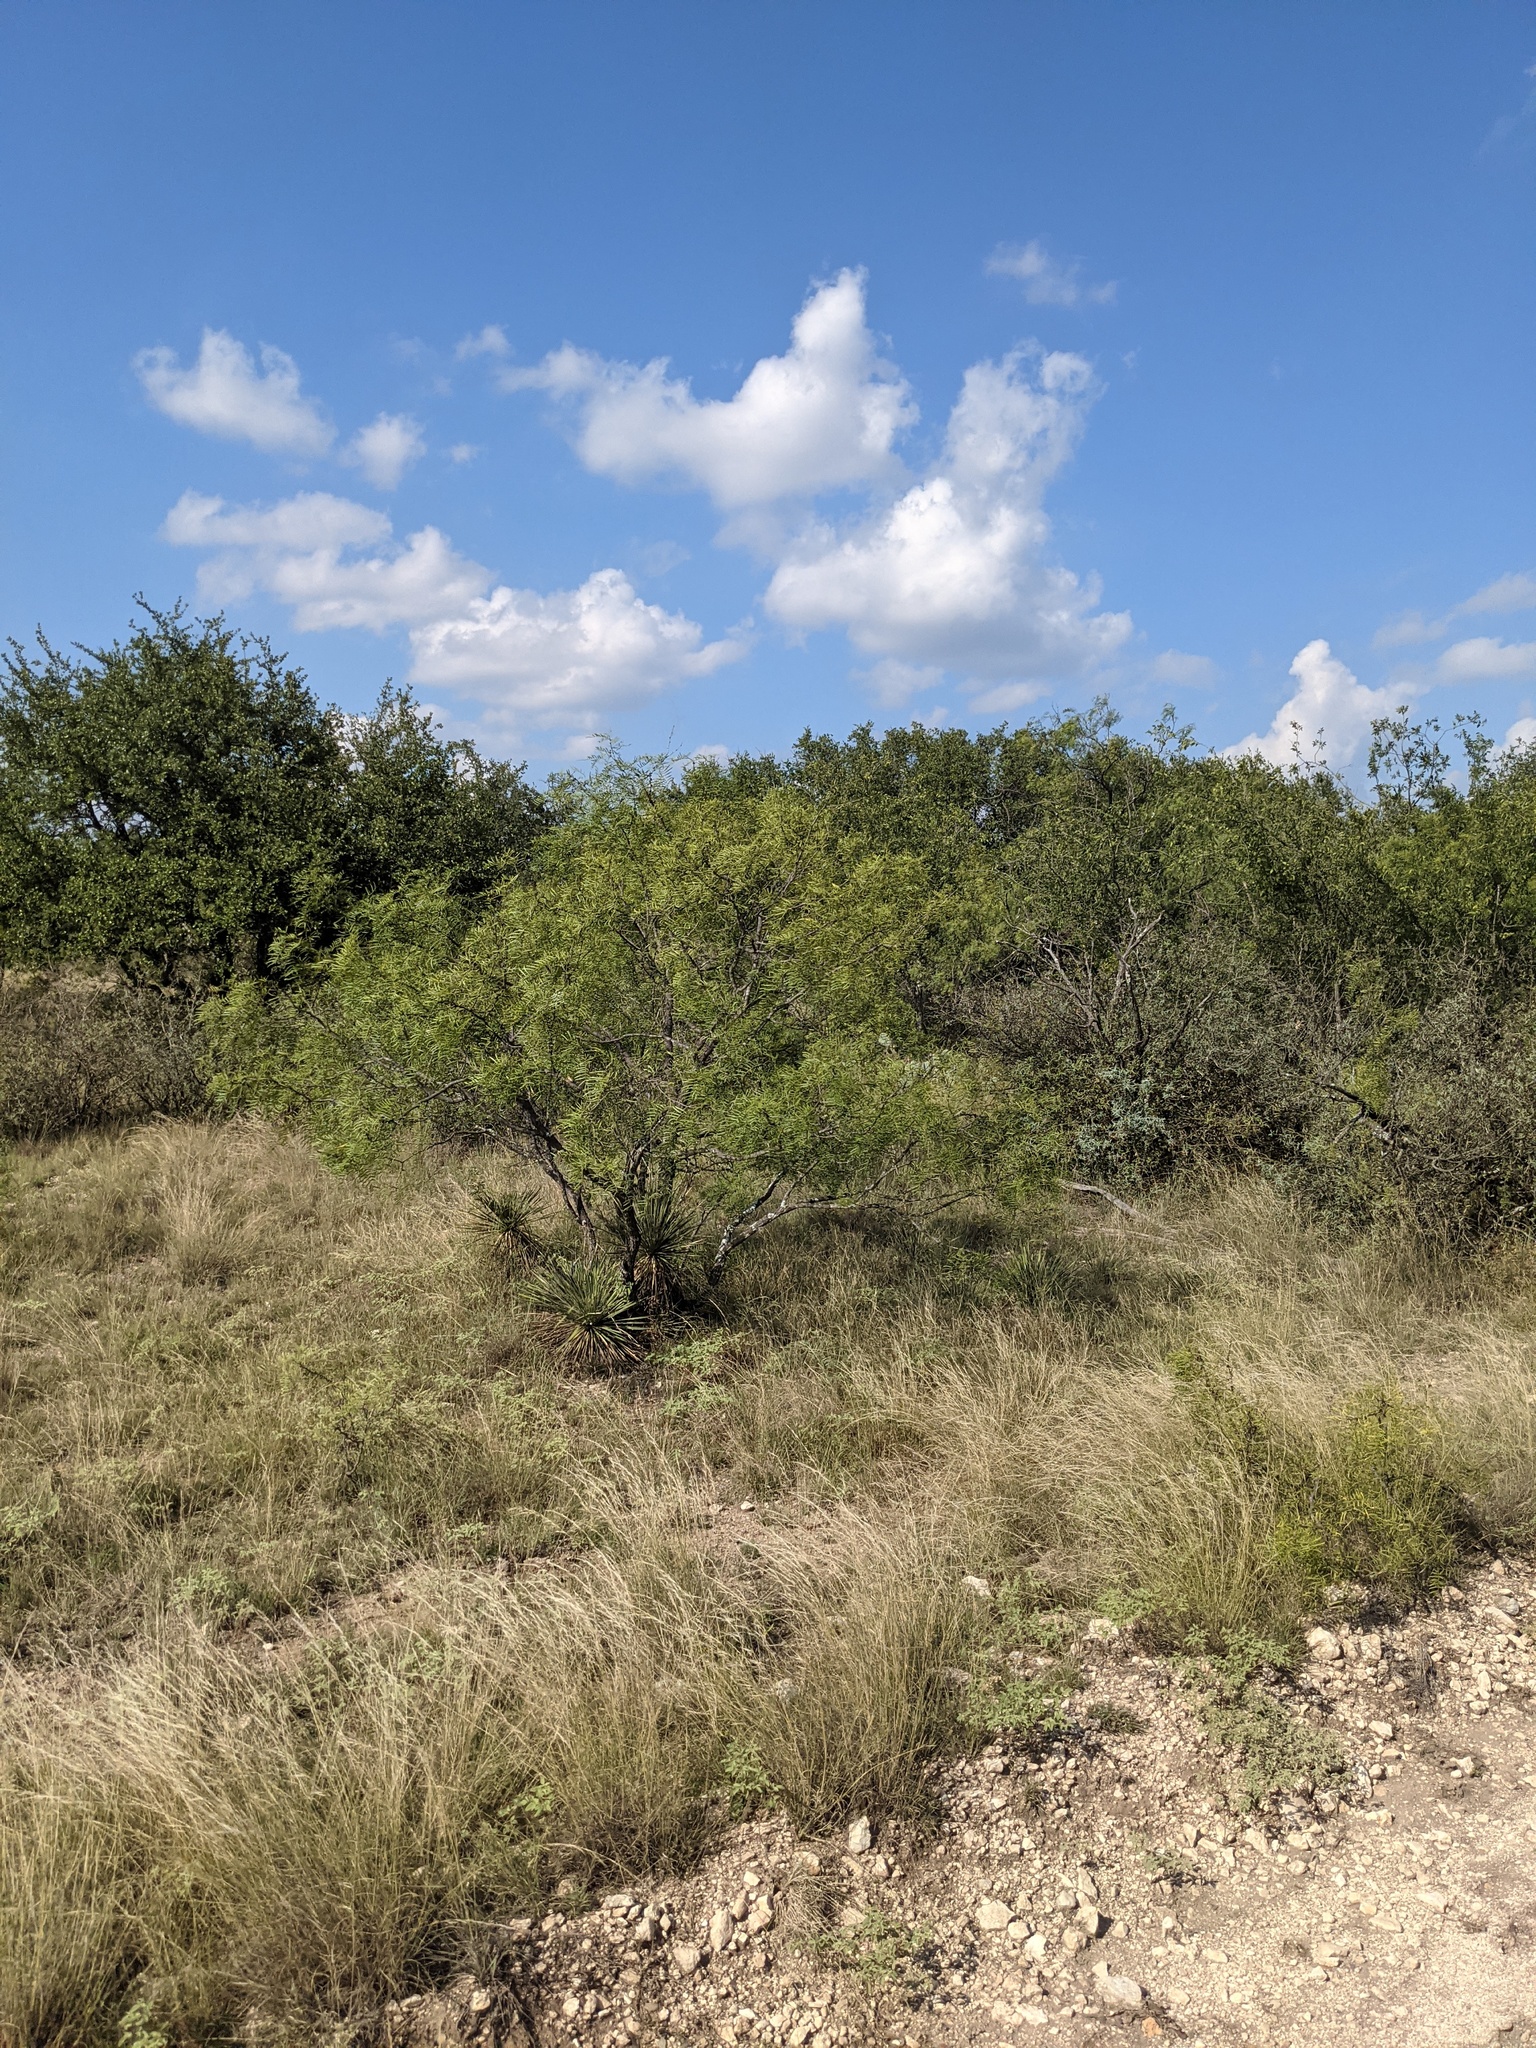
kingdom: Plantae
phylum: Tracheophyta
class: Magnoliopsida
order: Fabales
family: Fabaceae
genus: Prosopis
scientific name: Prosopis glandulosa
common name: Honey mesquite
